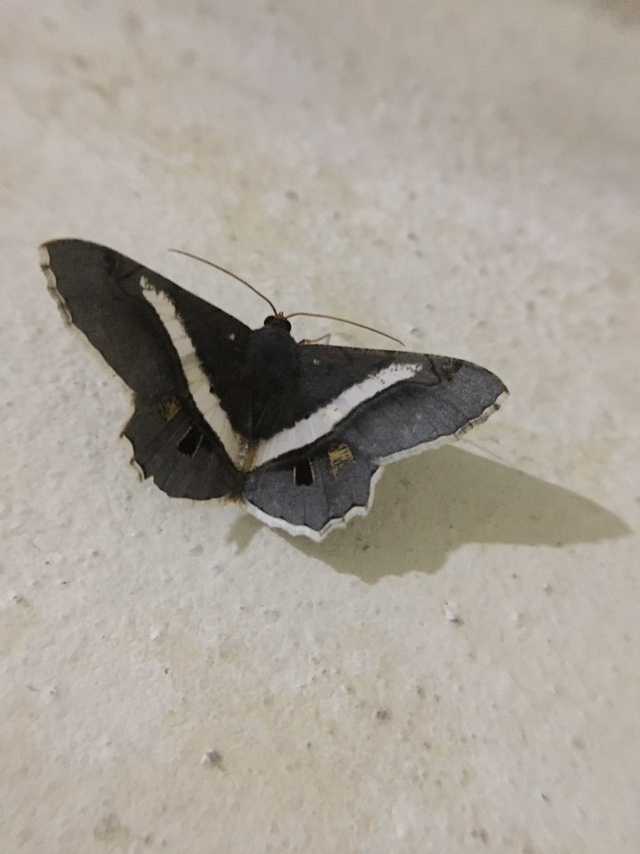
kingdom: Animalia
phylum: Arthropoda
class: Insecta
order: Lepidoptera
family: Geometridae
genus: Chiasmia
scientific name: Chiasmia eleonora
